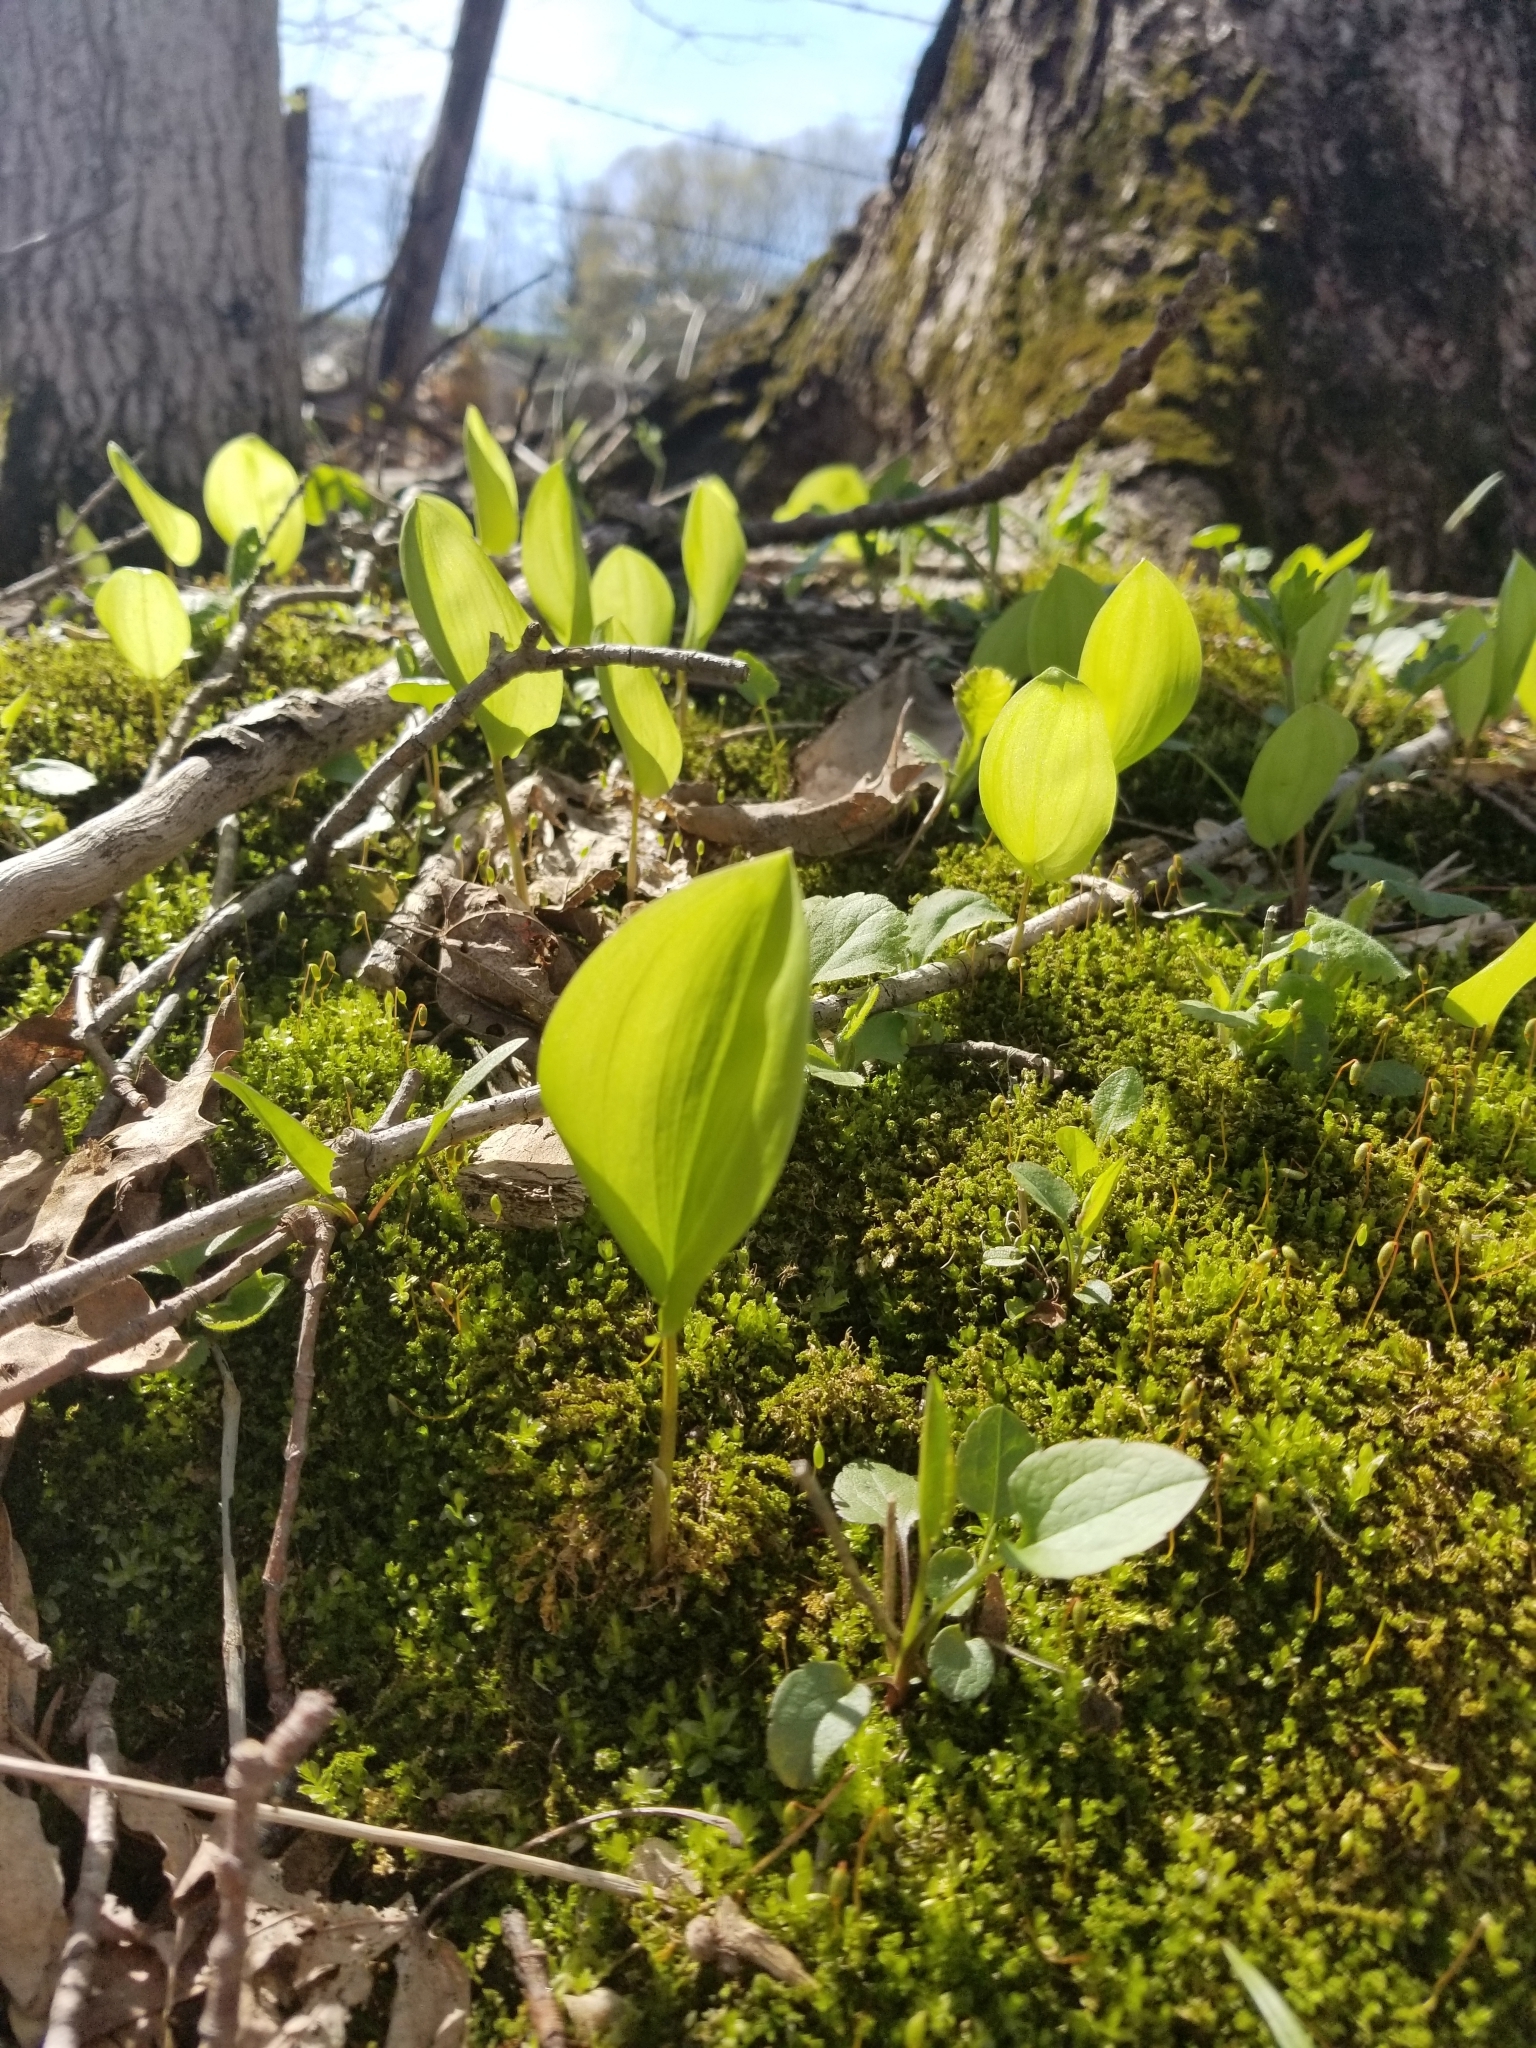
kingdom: Plantae
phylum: Tracheophyta
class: Liliopsida
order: Asparagales
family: Asparagaceae
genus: Maianthemum
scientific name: Maianthemum canadense
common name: False lily-of-the-valley
